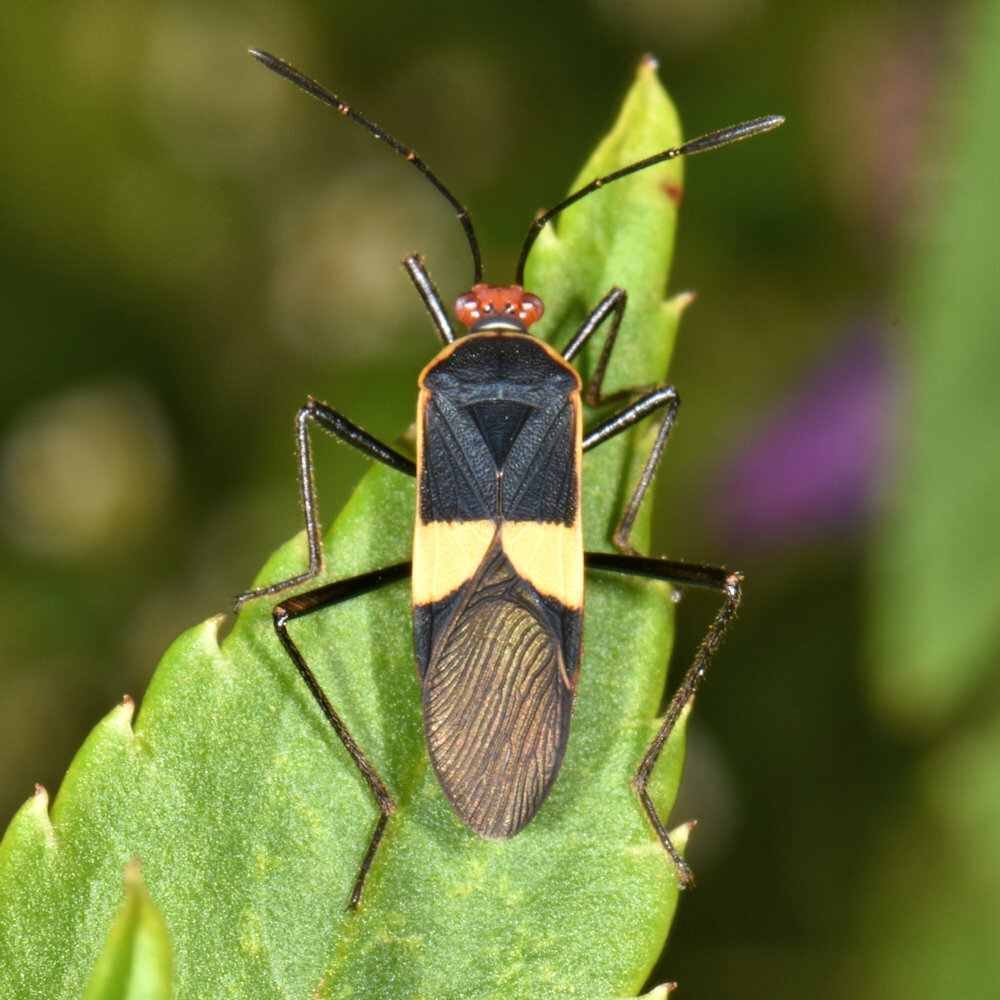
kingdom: Animalia
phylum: Arthropoda
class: Insecta
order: Hemiptera
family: Coreidae
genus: Hypselonotus
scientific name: Hypselonotus interruptus
